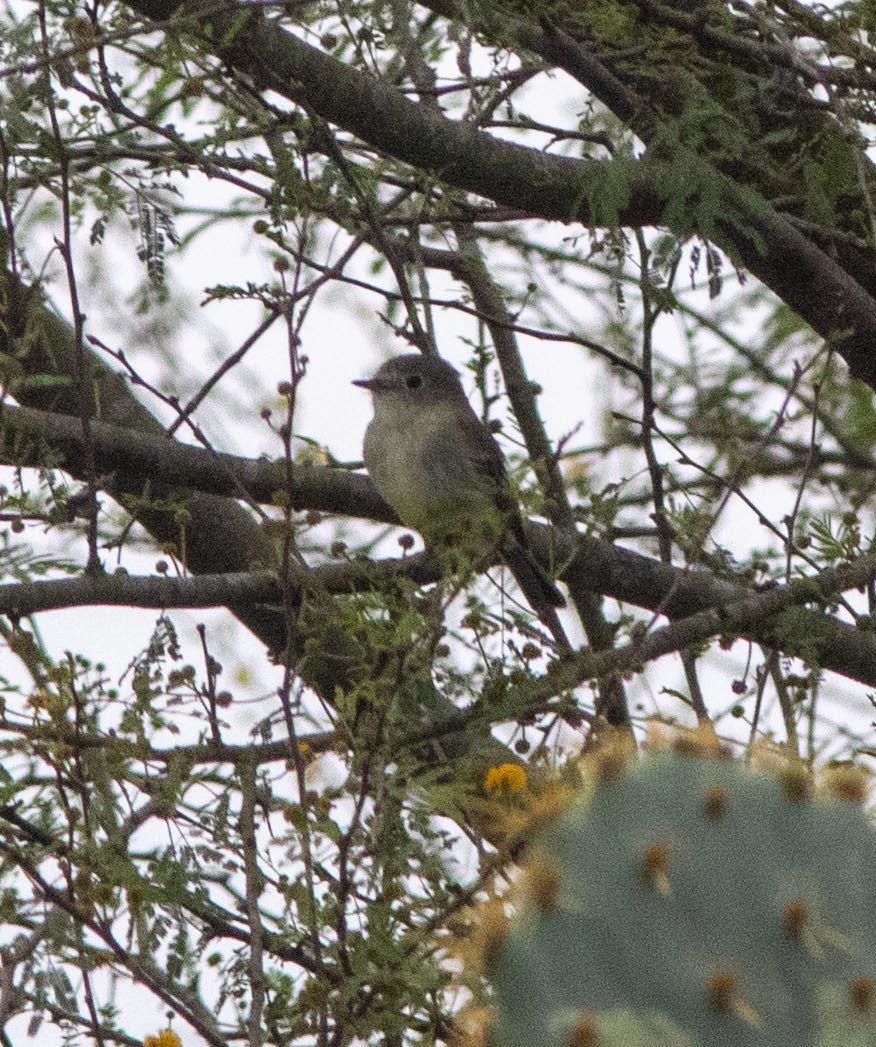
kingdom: Animalia
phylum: Chordata
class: Aves
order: Passeriformes
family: Tyrannidae
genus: Empidonax
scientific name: Empidonax wrightii
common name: Gray flycatcher
